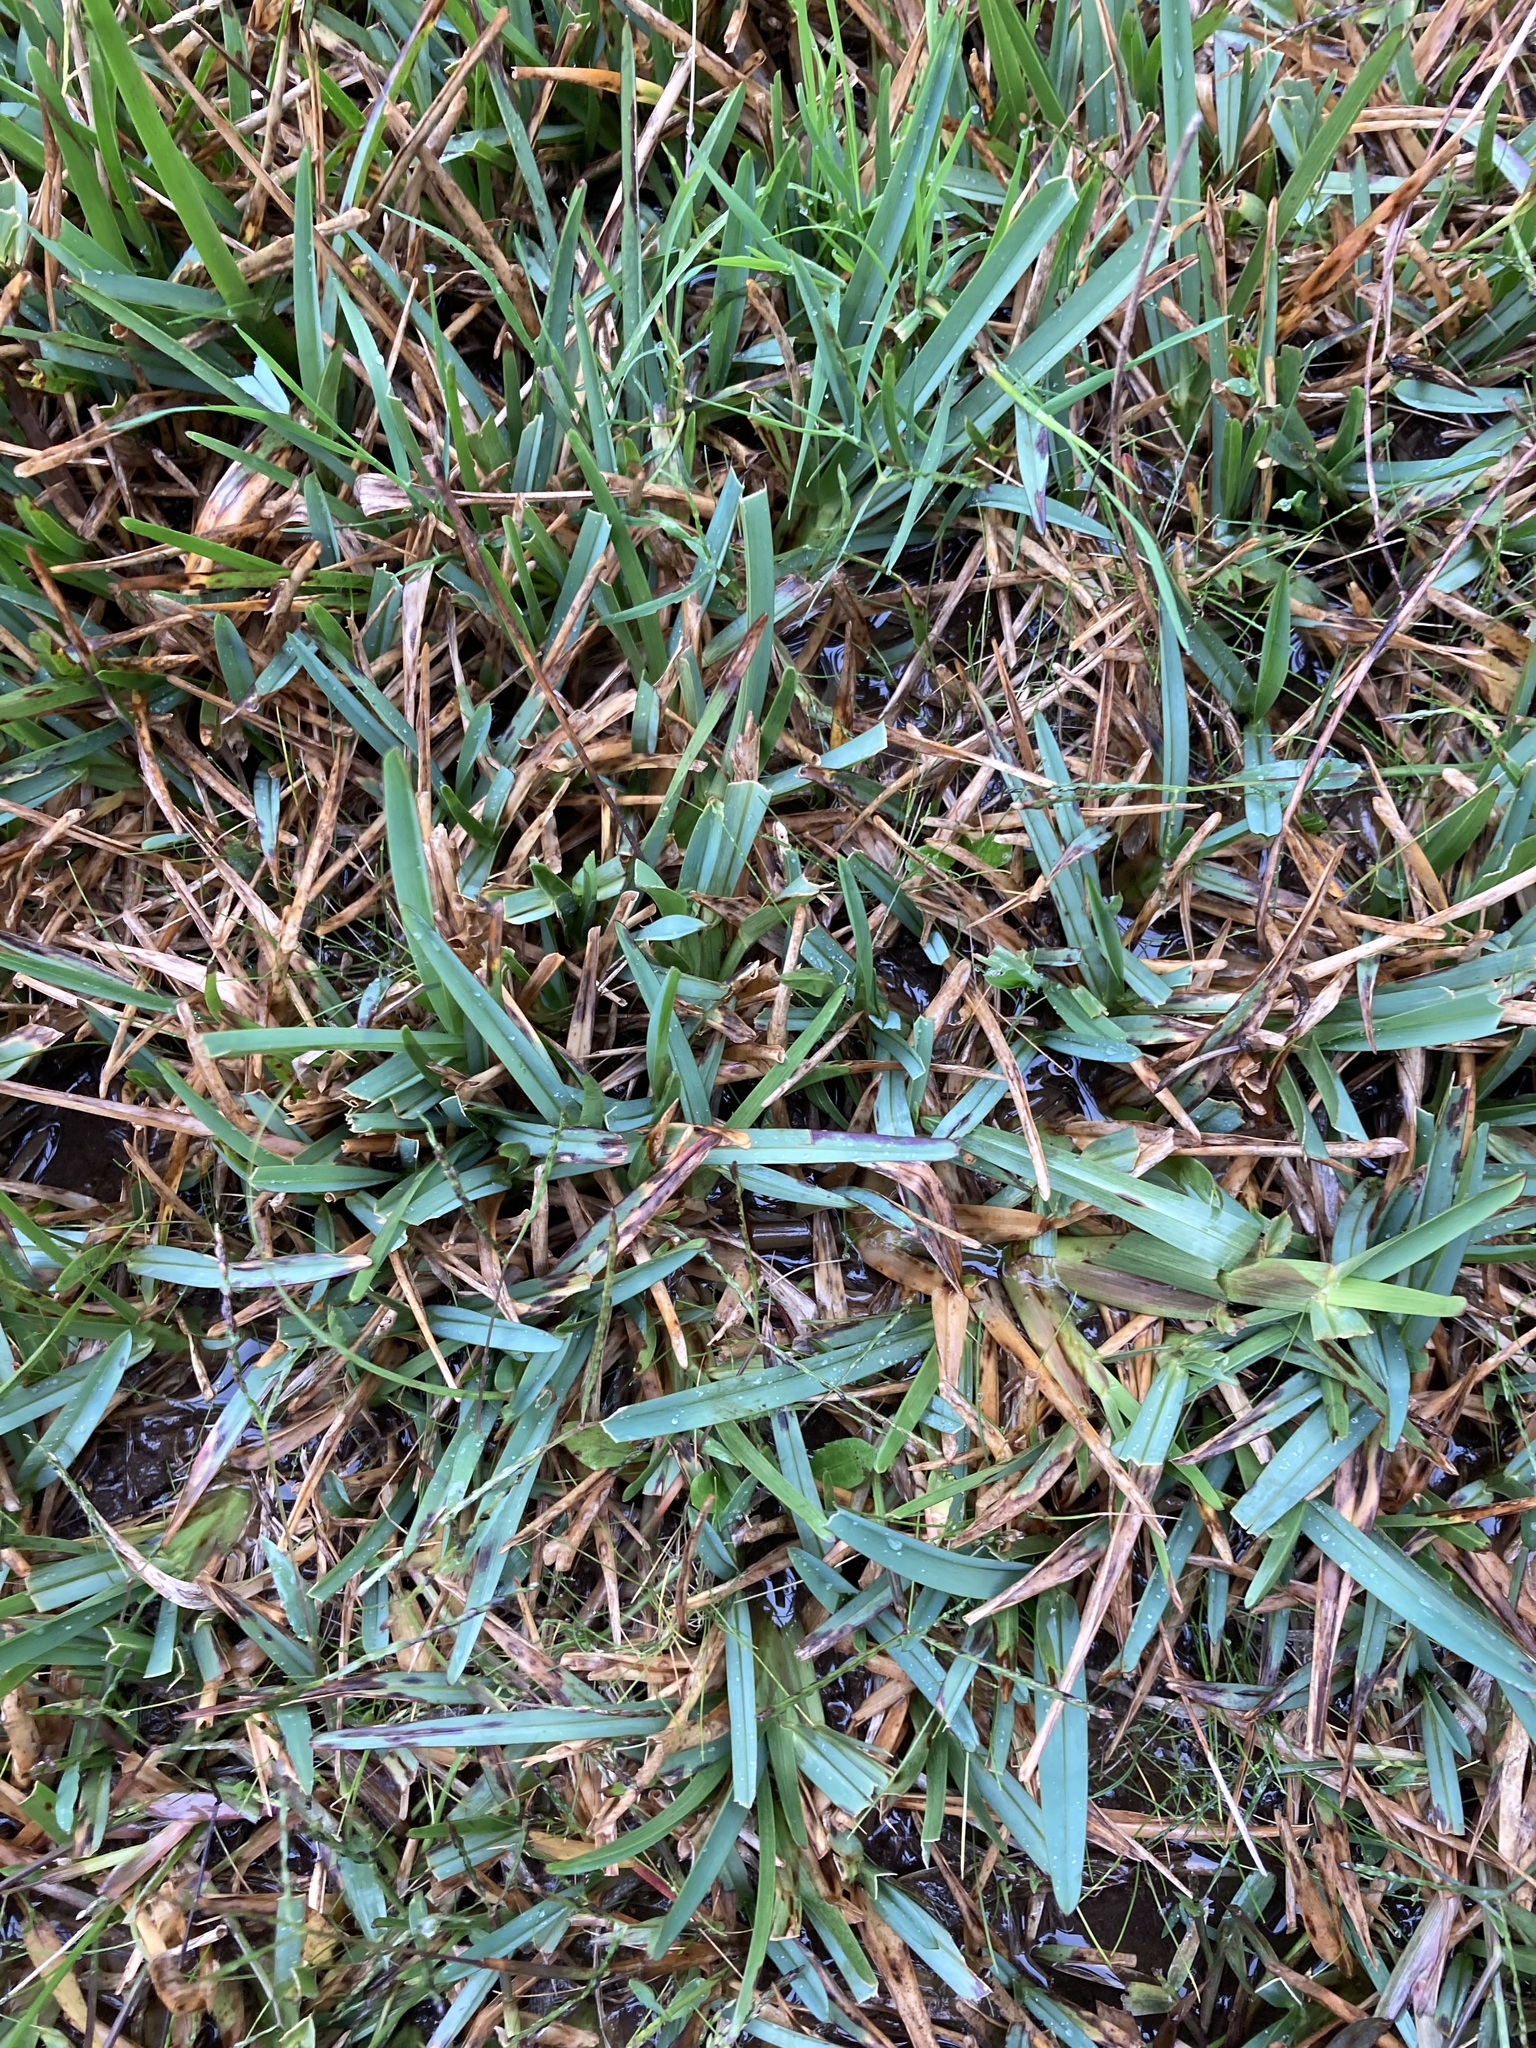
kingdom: Plantae
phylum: Tracheophyta
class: Liliopsida
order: Poales
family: Poaceae
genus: Stenotaphrum
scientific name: Stenotaphrum secundatum
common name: St. augustine grass
